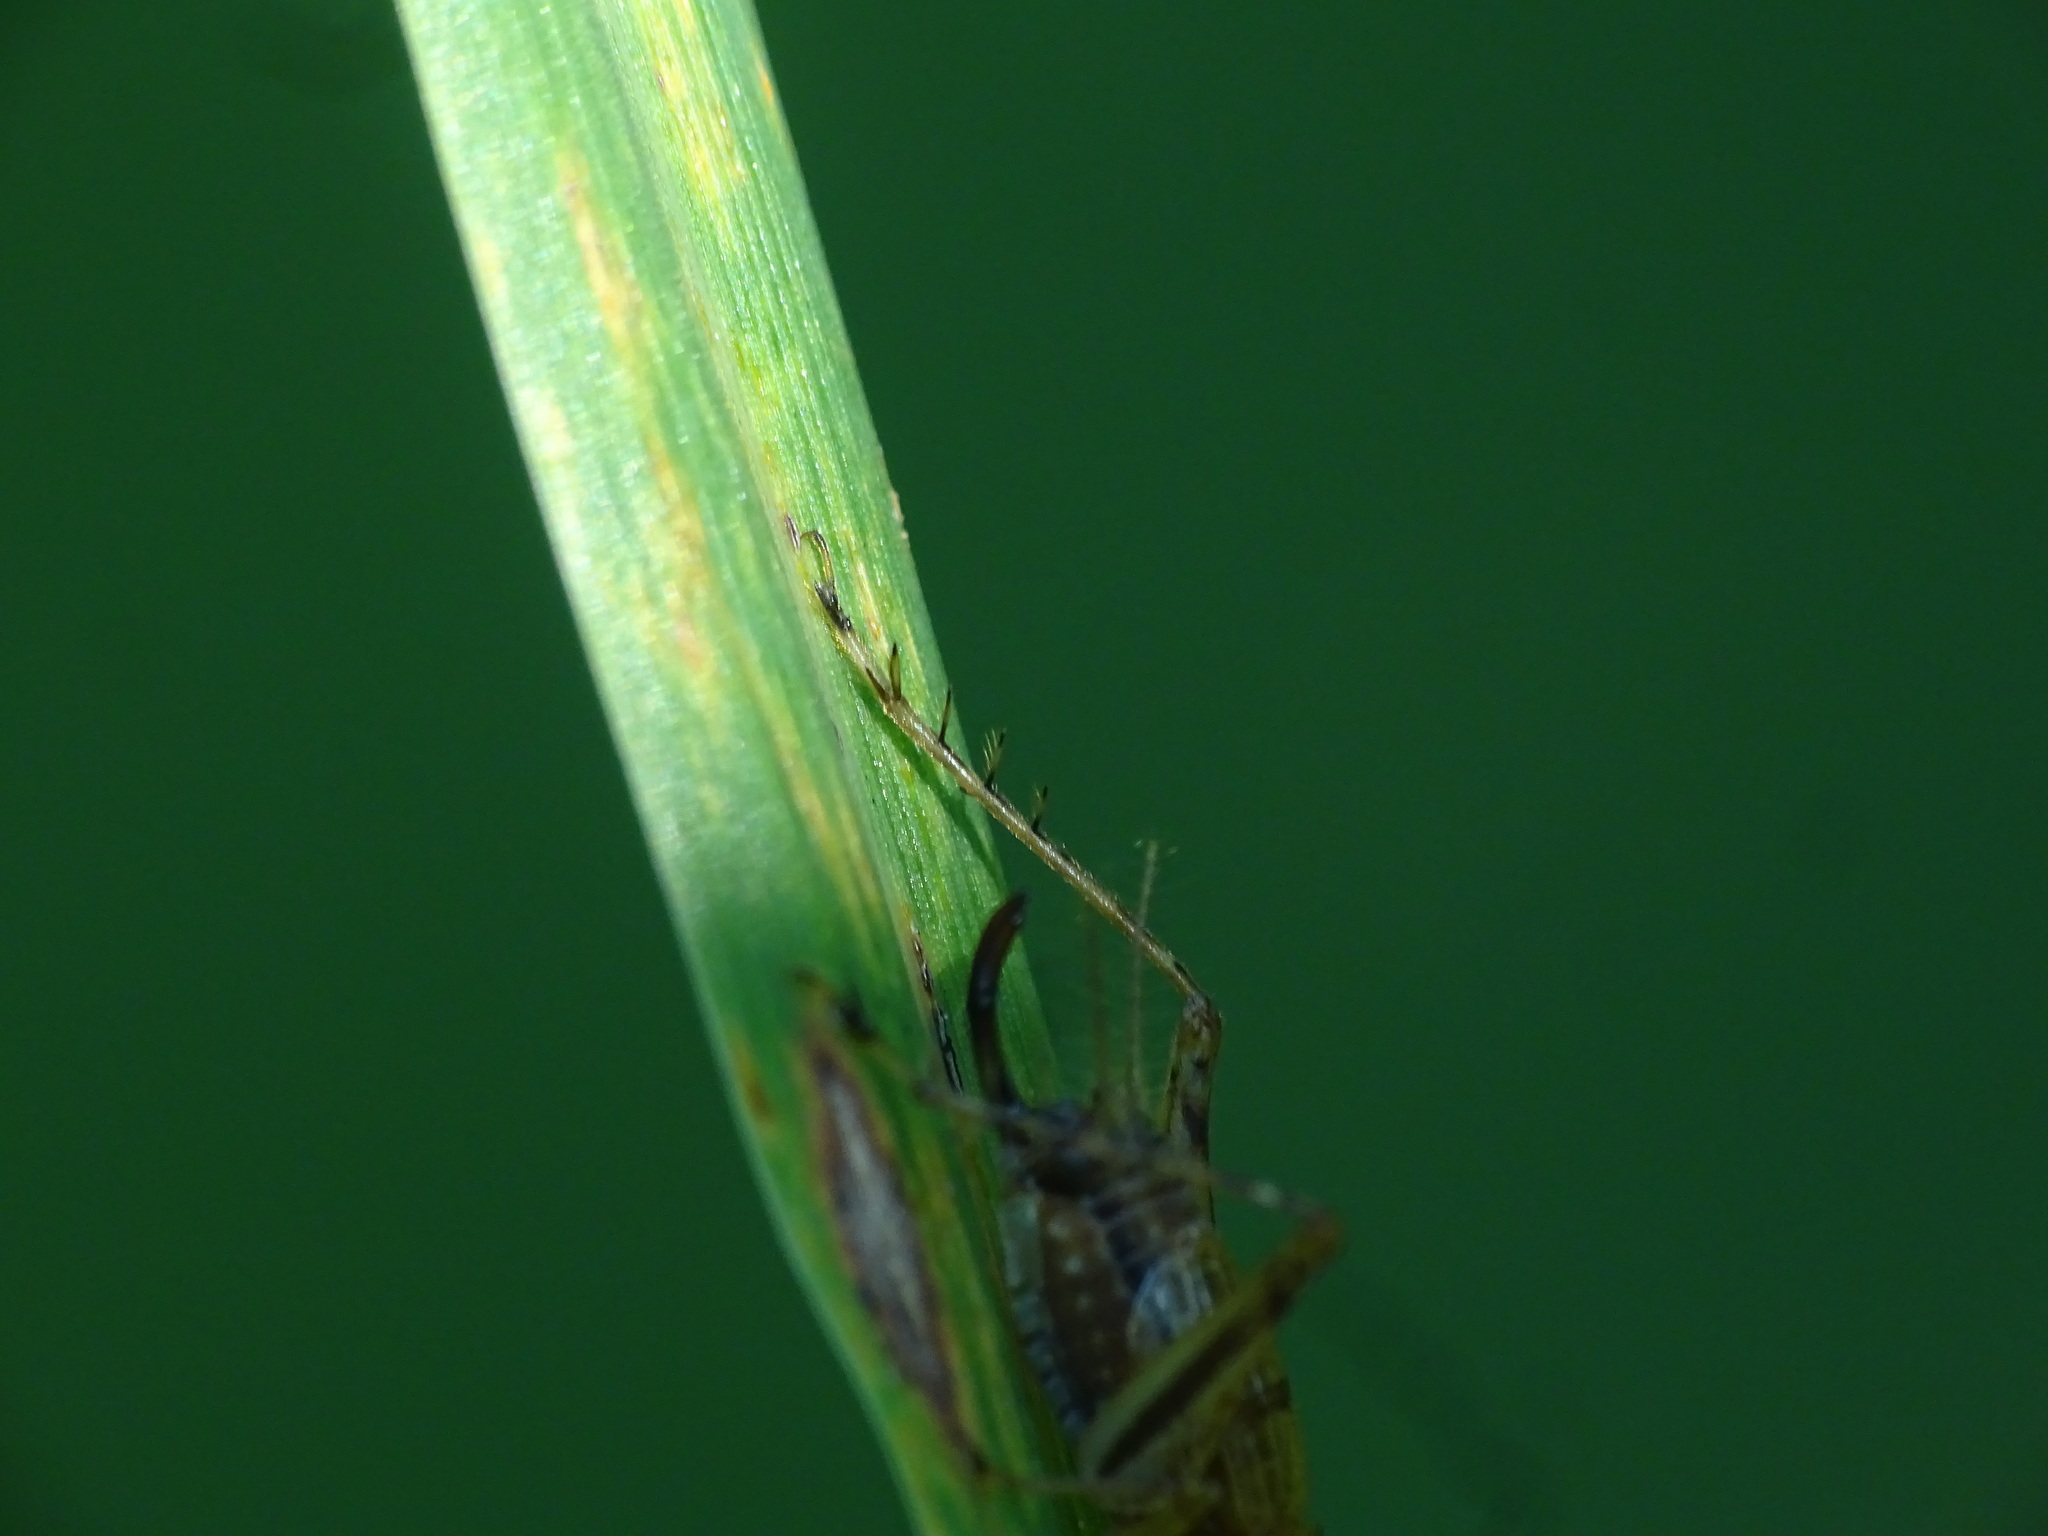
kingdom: Animalia
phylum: Arthropoda
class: Insecta
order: Orthoptera
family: Trigonidiidae
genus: Anaxipha
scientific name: Anaxipha exigua
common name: Say's bush cricket
